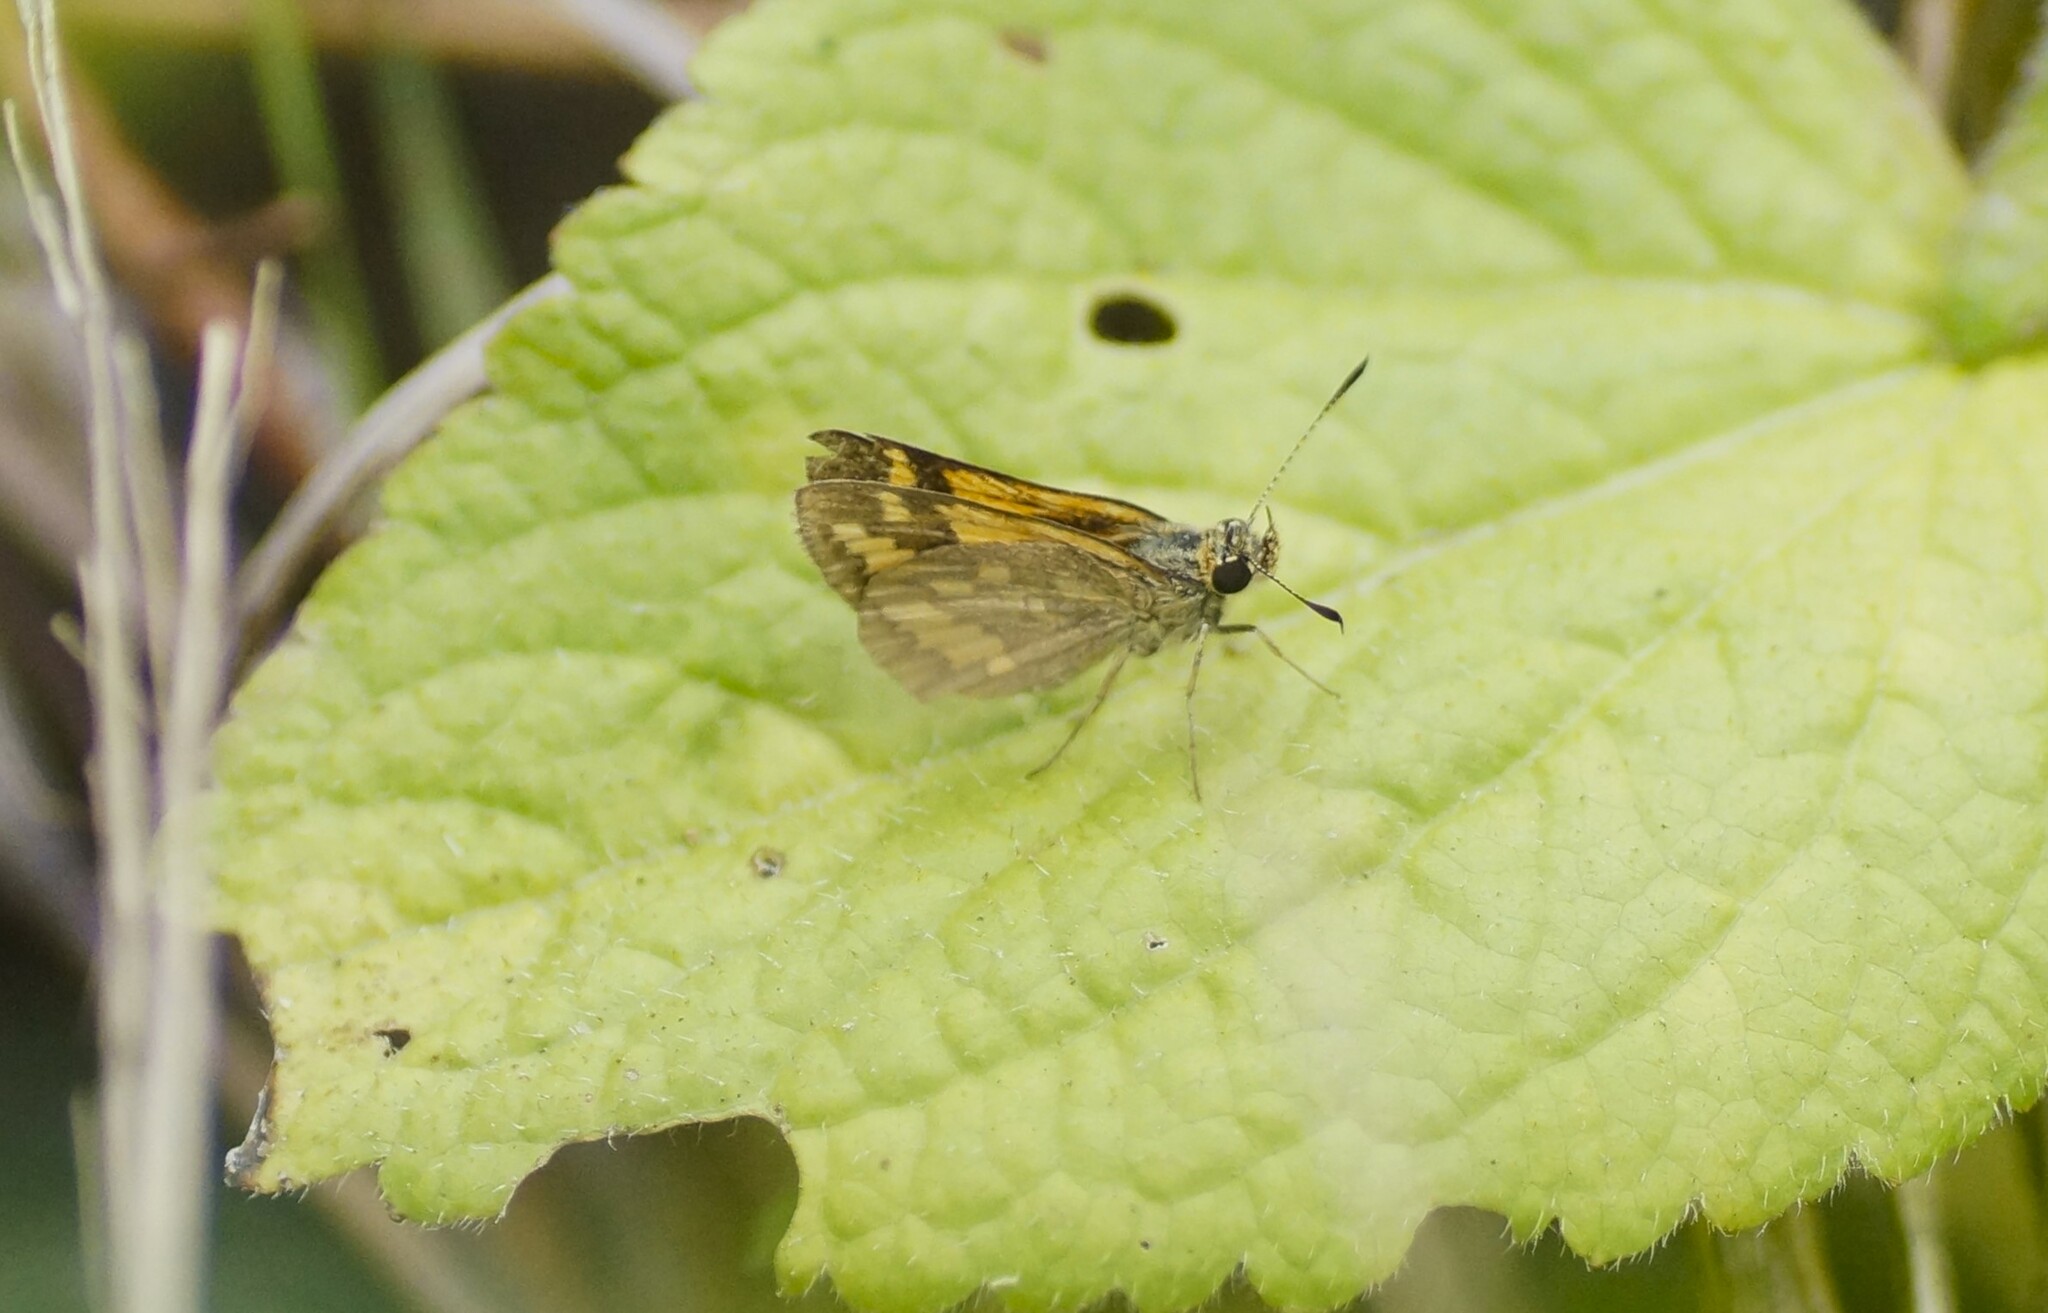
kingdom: Animalia
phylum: Arthropoda
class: Insecta
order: Lepidoptera
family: Hesperiidae
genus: Suniana
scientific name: Suniana sunias
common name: Wide-brand grass-dart
